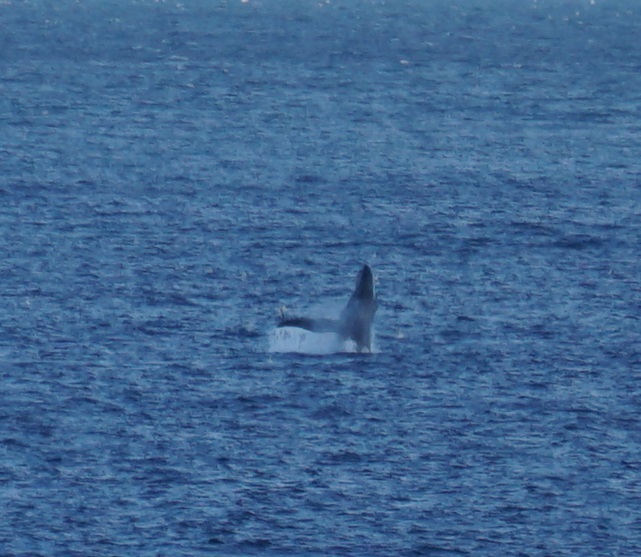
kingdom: Animalia
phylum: Chordata
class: Mammalia
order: Cetacea
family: Balaenopteridae
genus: Megaptera
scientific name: Megaptera novaeangliae
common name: Humpback whale
